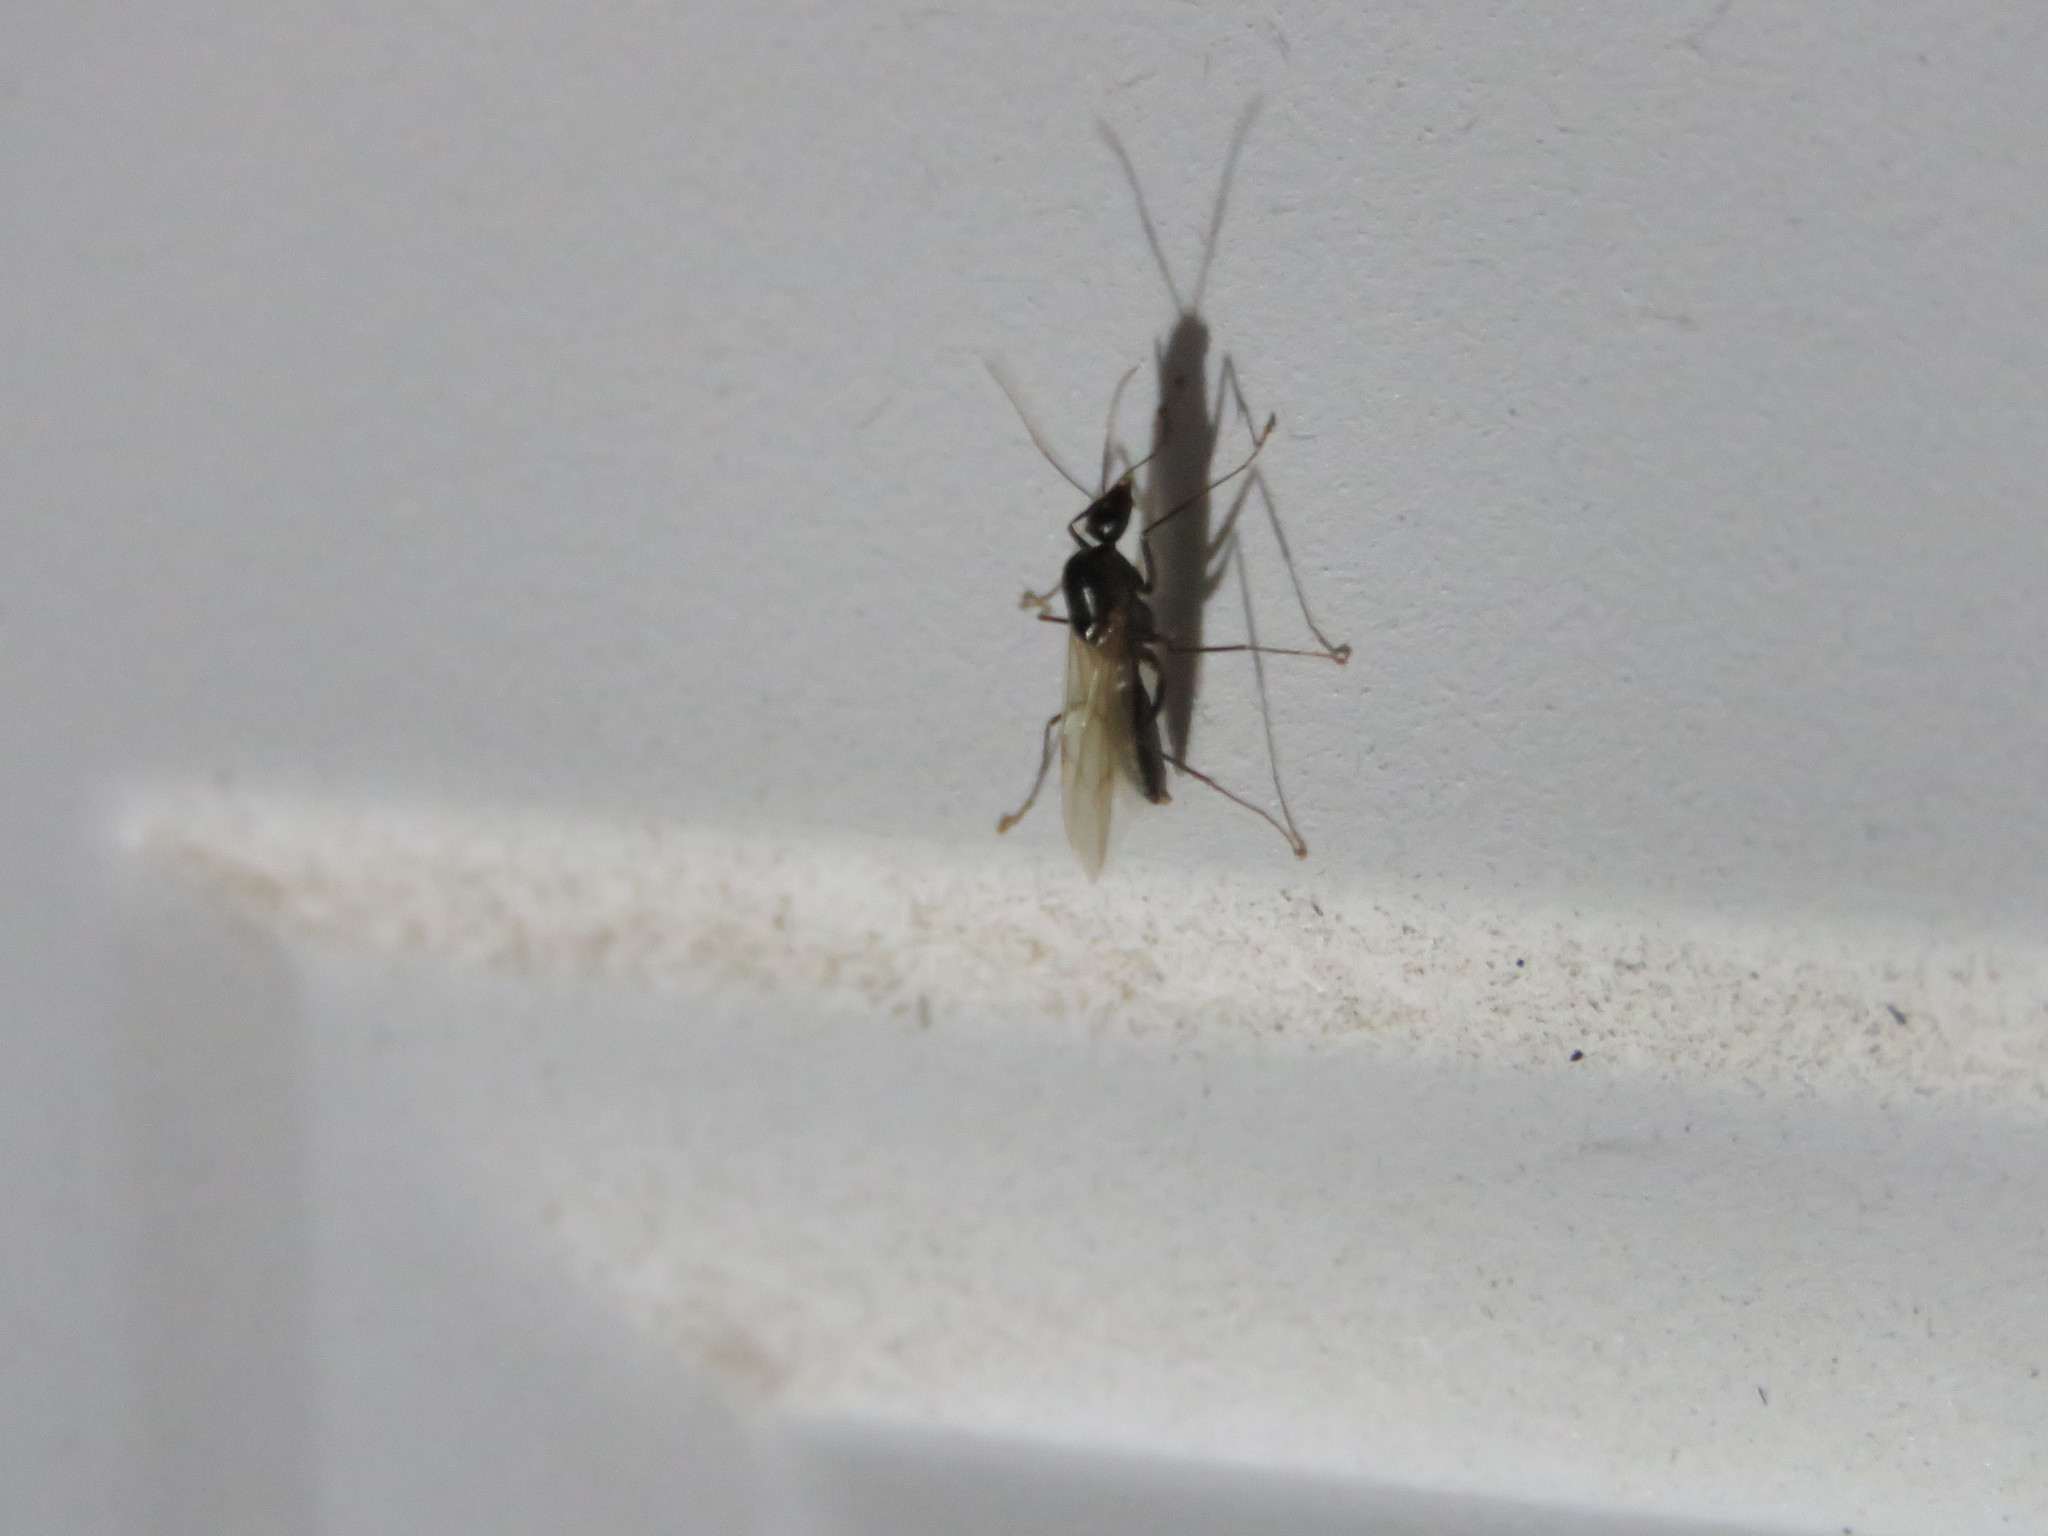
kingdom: Animalia
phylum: Arthropoda
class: Insecta
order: Hymenoptera
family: Formicidae
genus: Camponotus
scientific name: Camponotus
